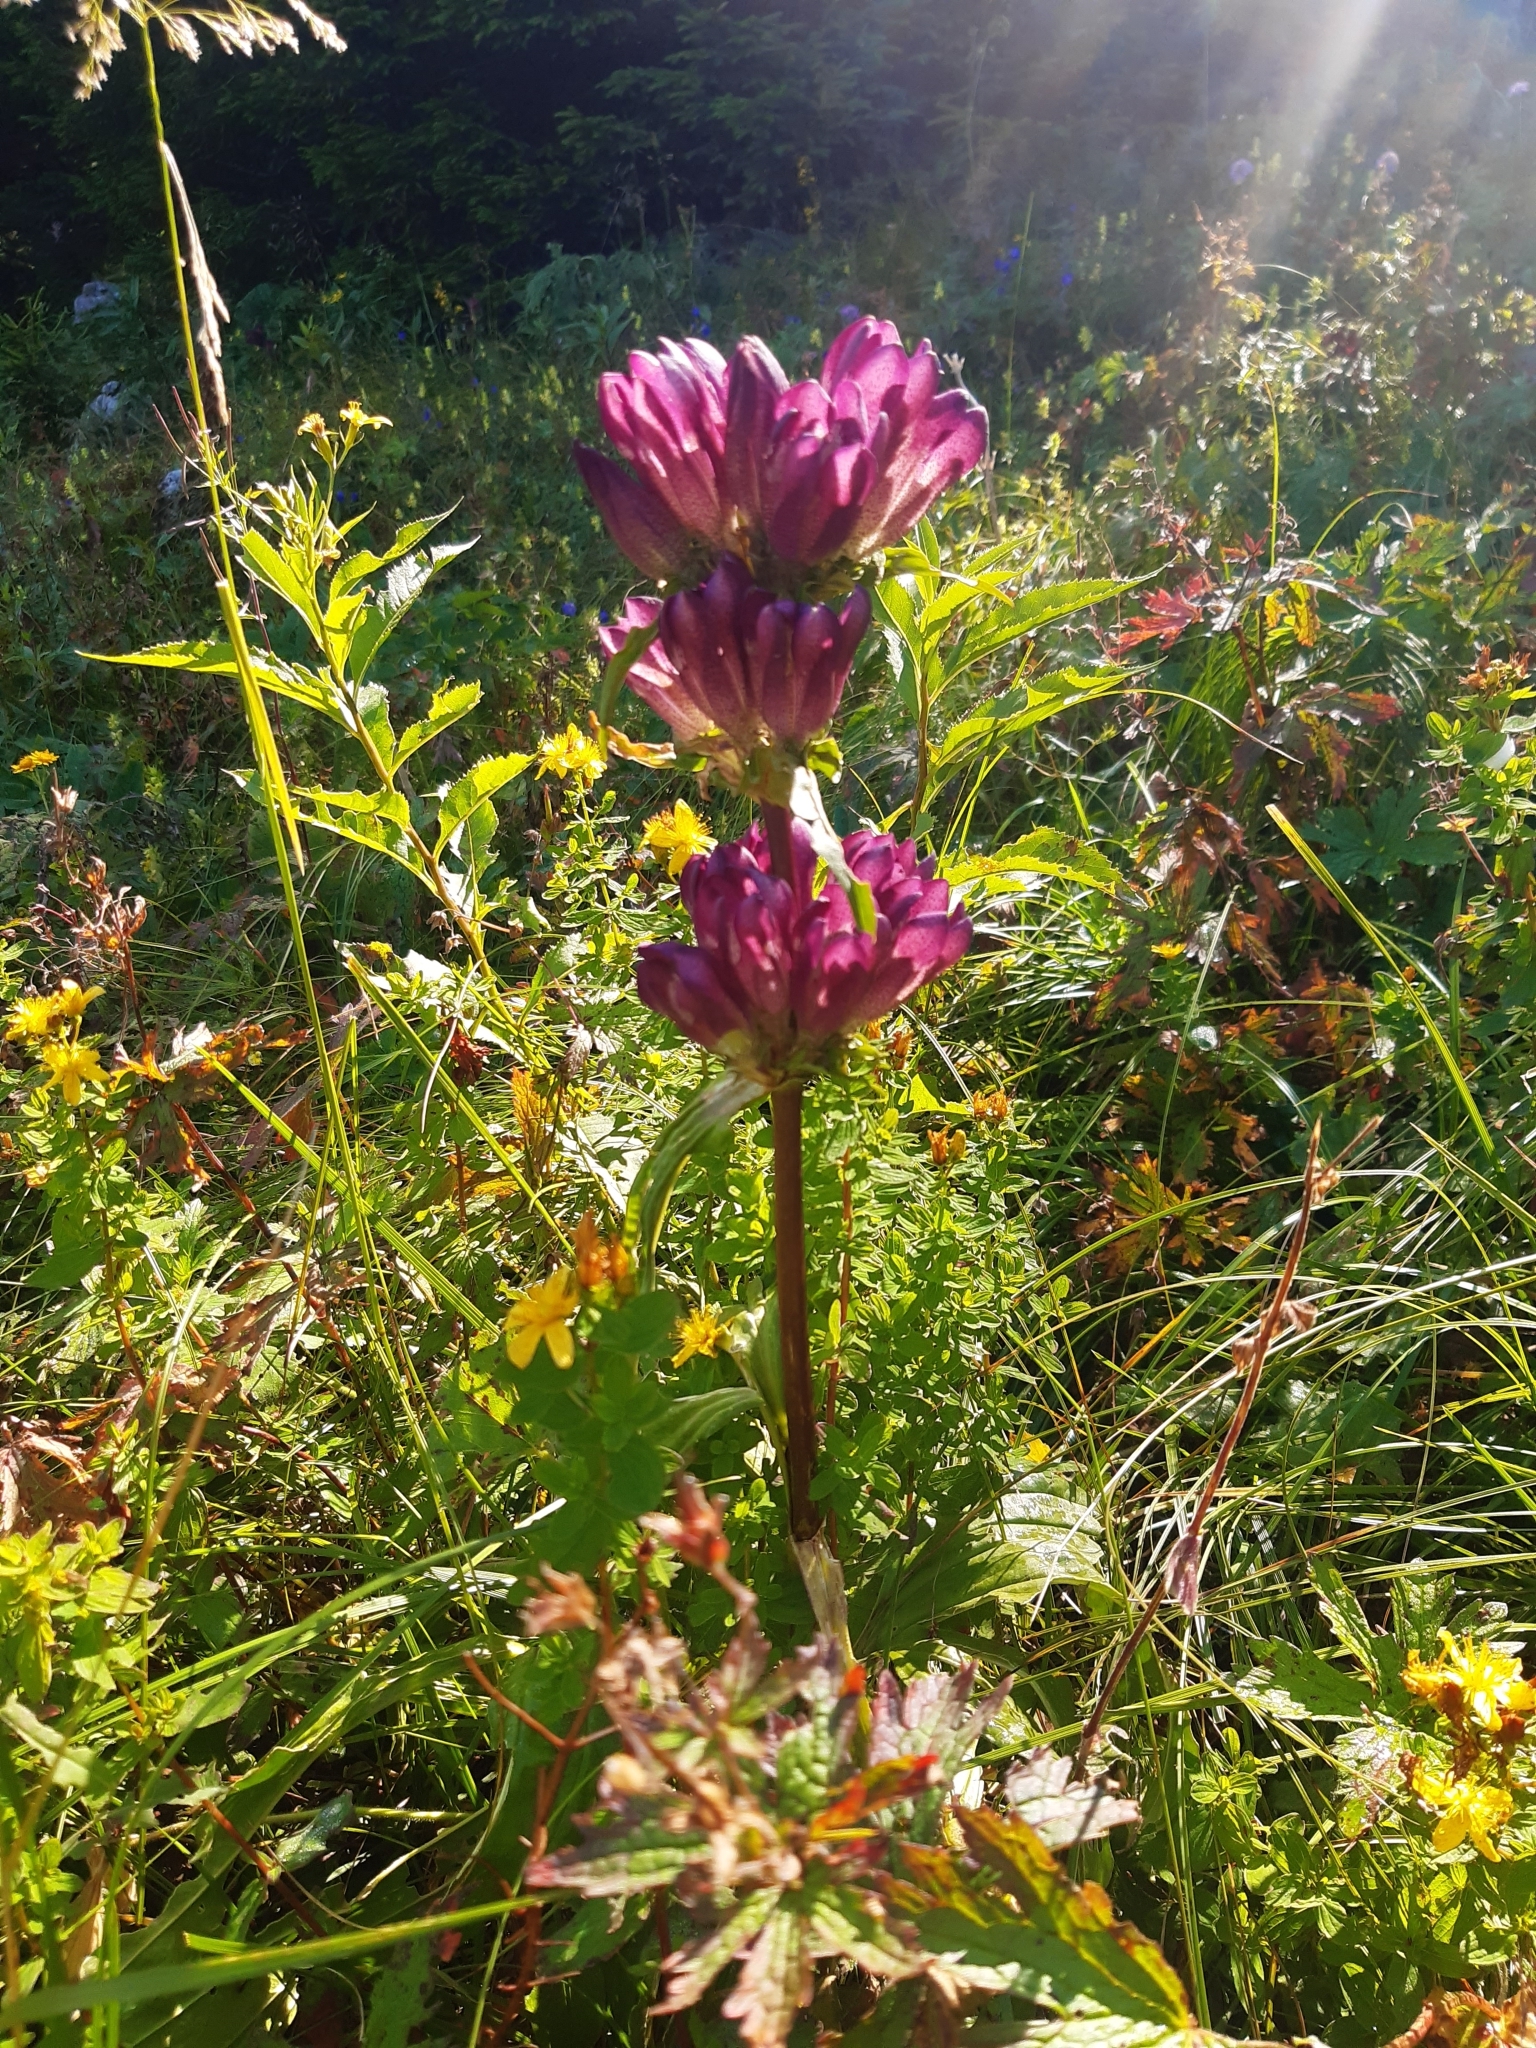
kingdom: Plantae
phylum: Tracheophyta
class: Magnoliopsida
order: Gentianales
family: Gentianaceae
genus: Gentiana
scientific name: Gentiana pannonica
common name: Hungarian gentian
